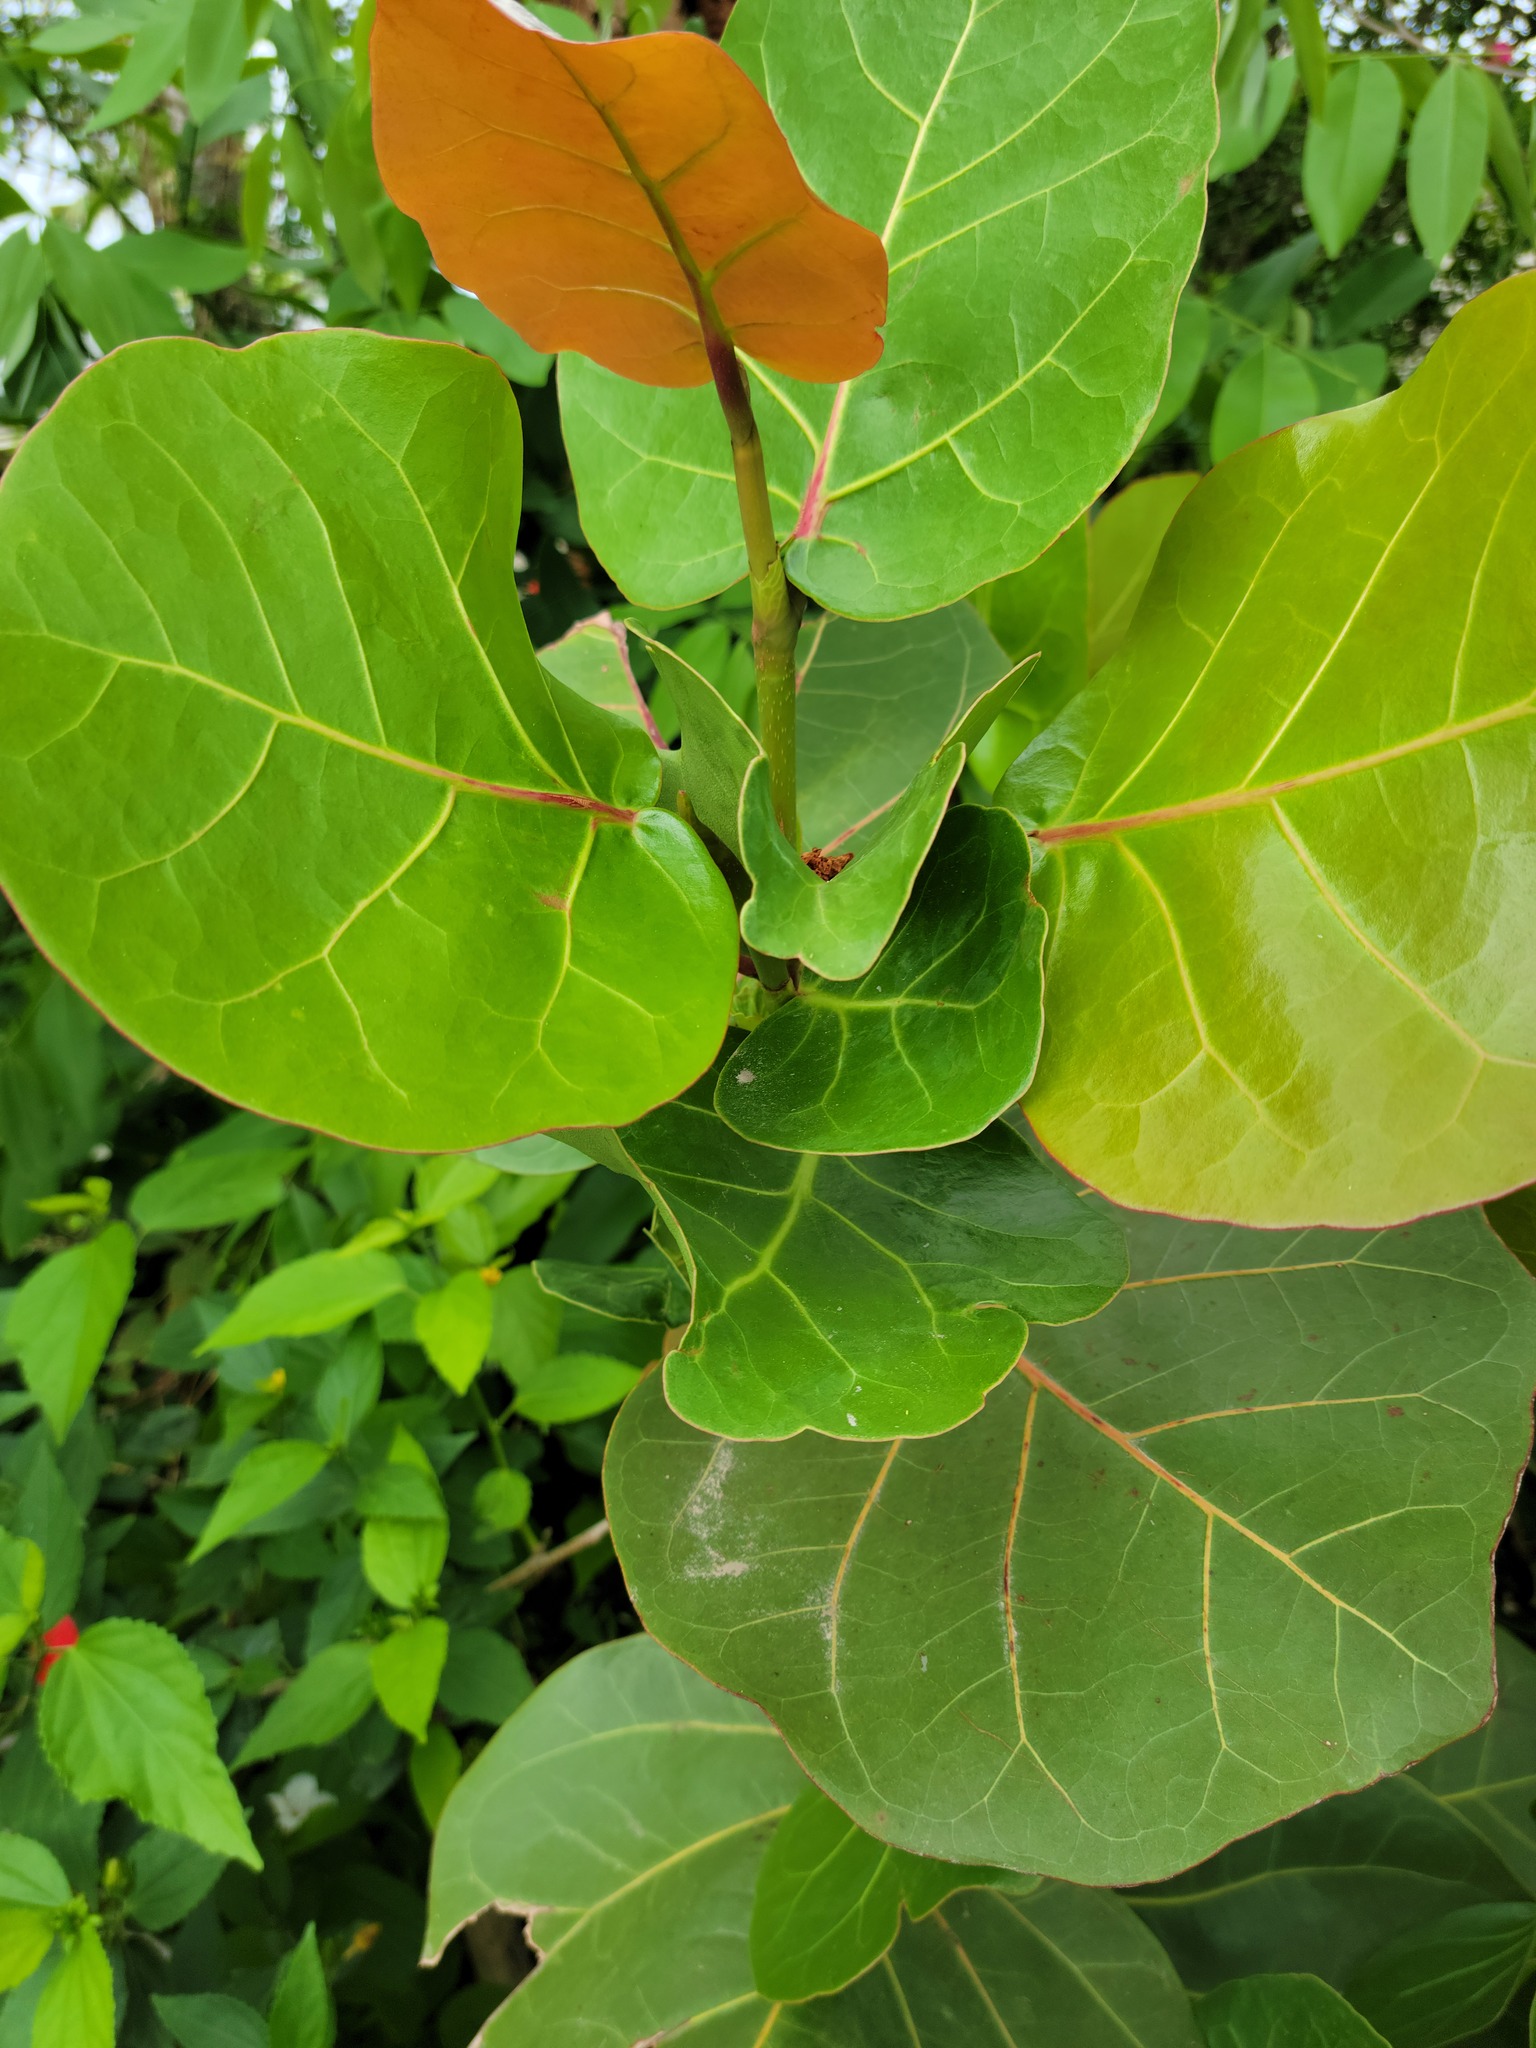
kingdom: Plantae
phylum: Tracheophyta
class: Magnoliopsida
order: Caryophyllales
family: Polygonaceae
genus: Coccoloba
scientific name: Coccoloba uvifera
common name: Seagrape
